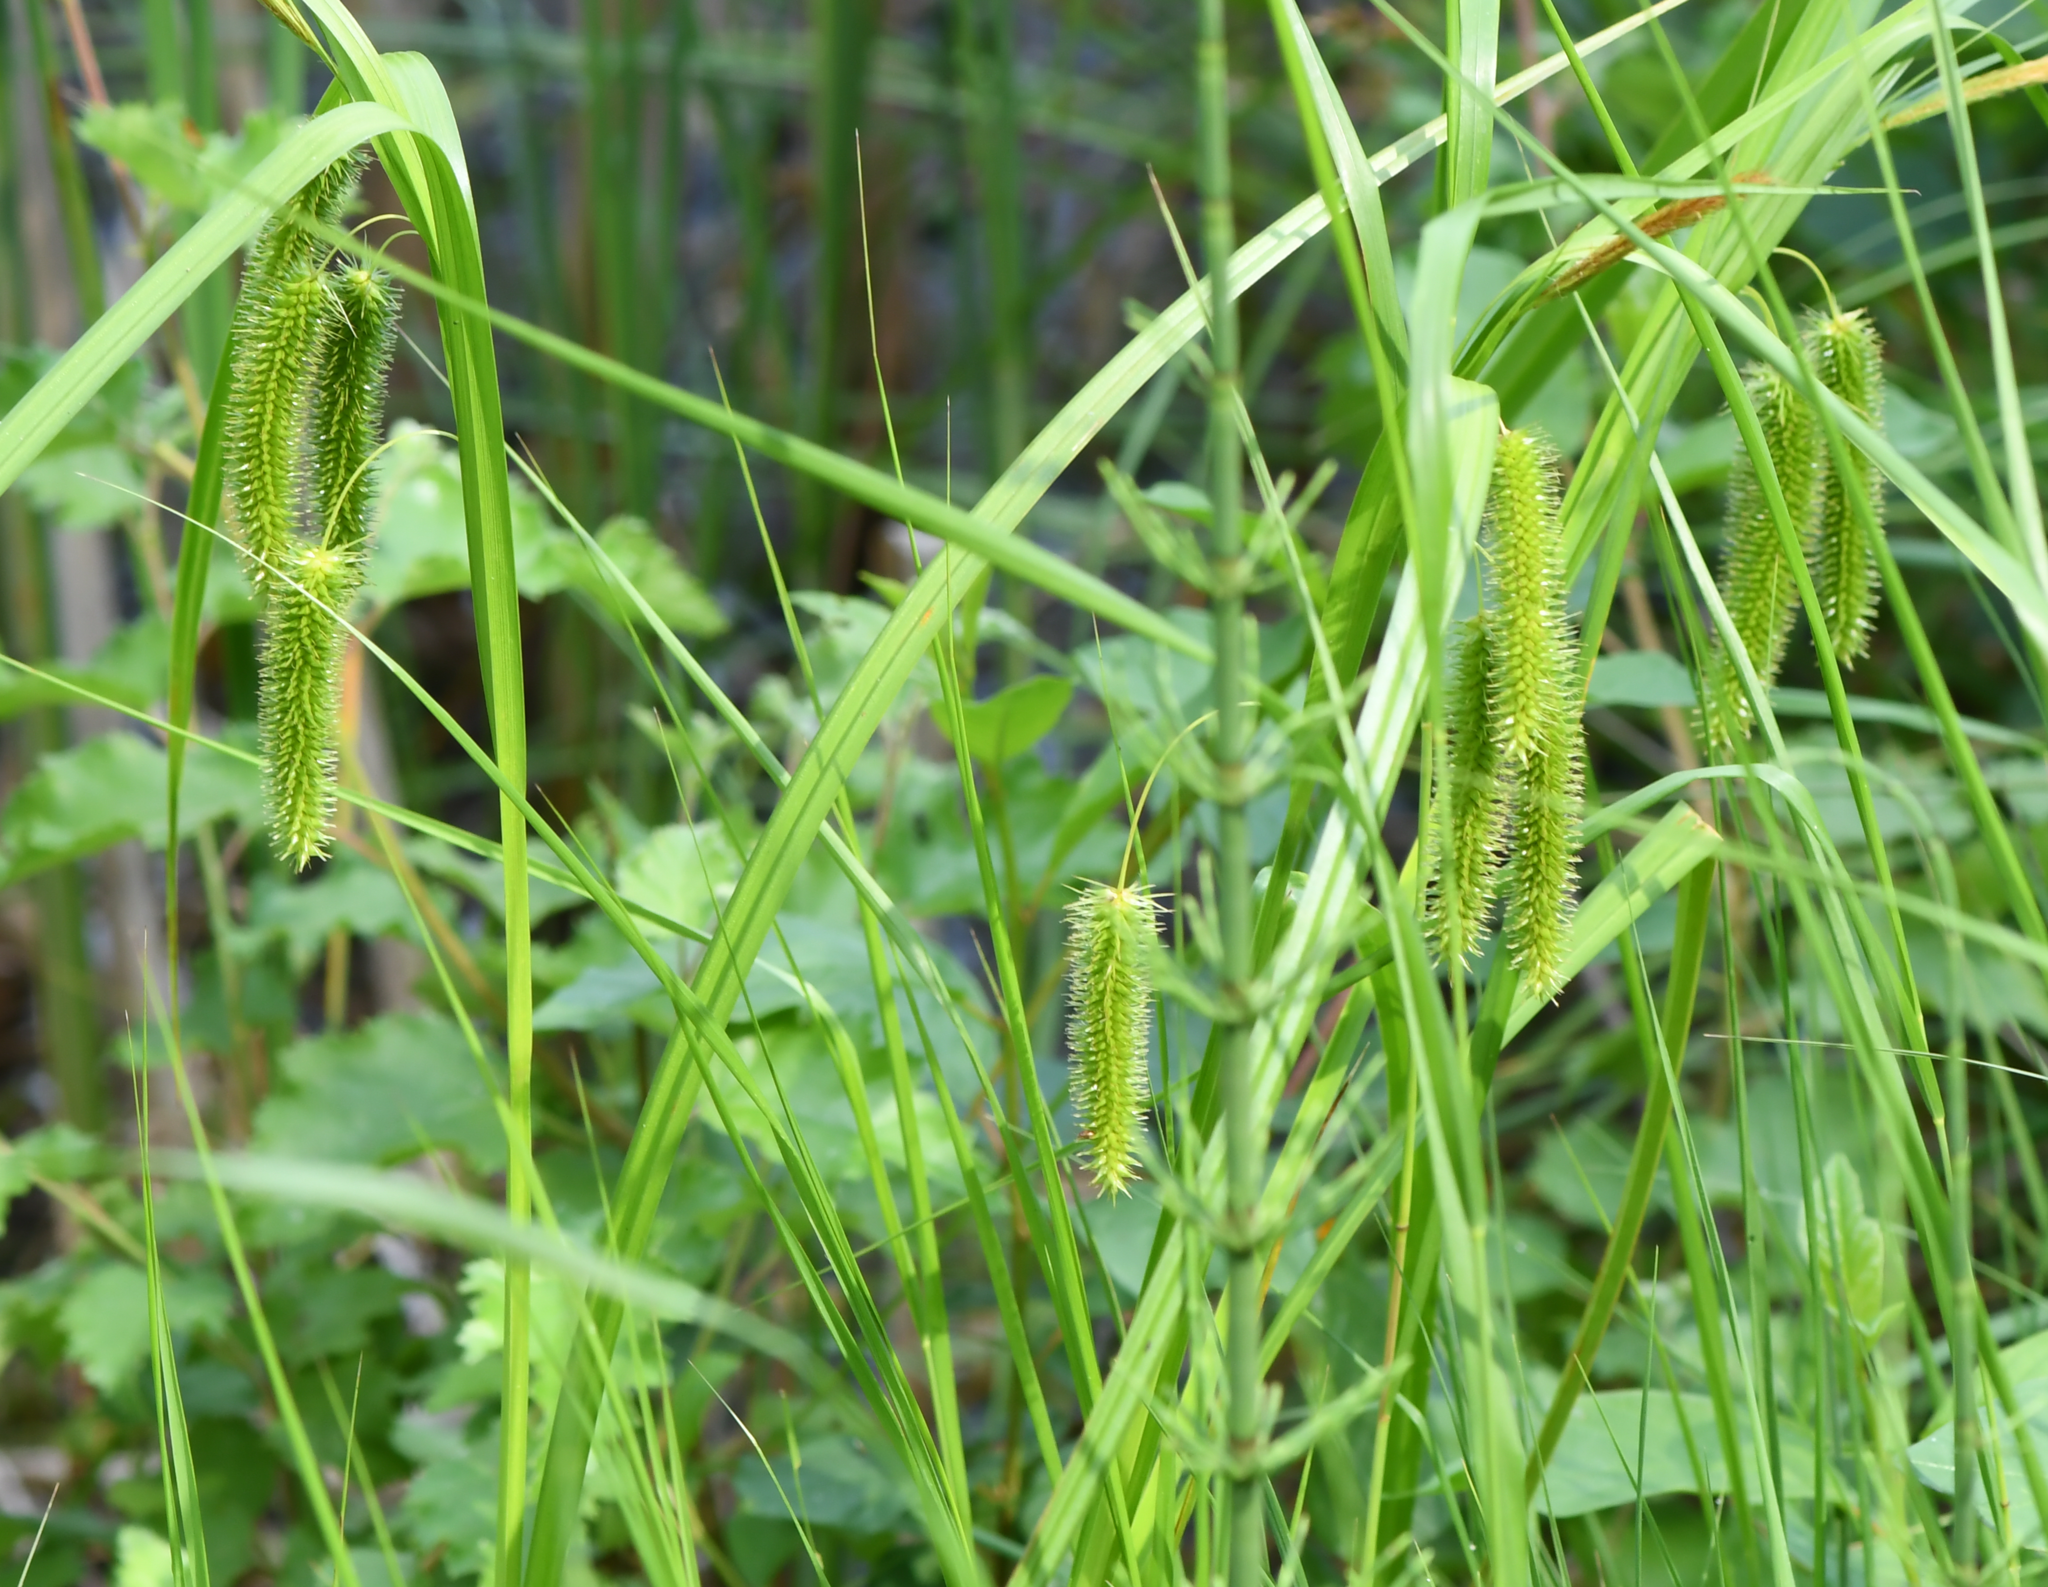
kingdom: Plantae
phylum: Tracheophyta
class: Liliopsida
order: Poales
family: Cyperaceae
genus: Carex
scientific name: Carex pseudocyperus
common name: Cyperus sedge
